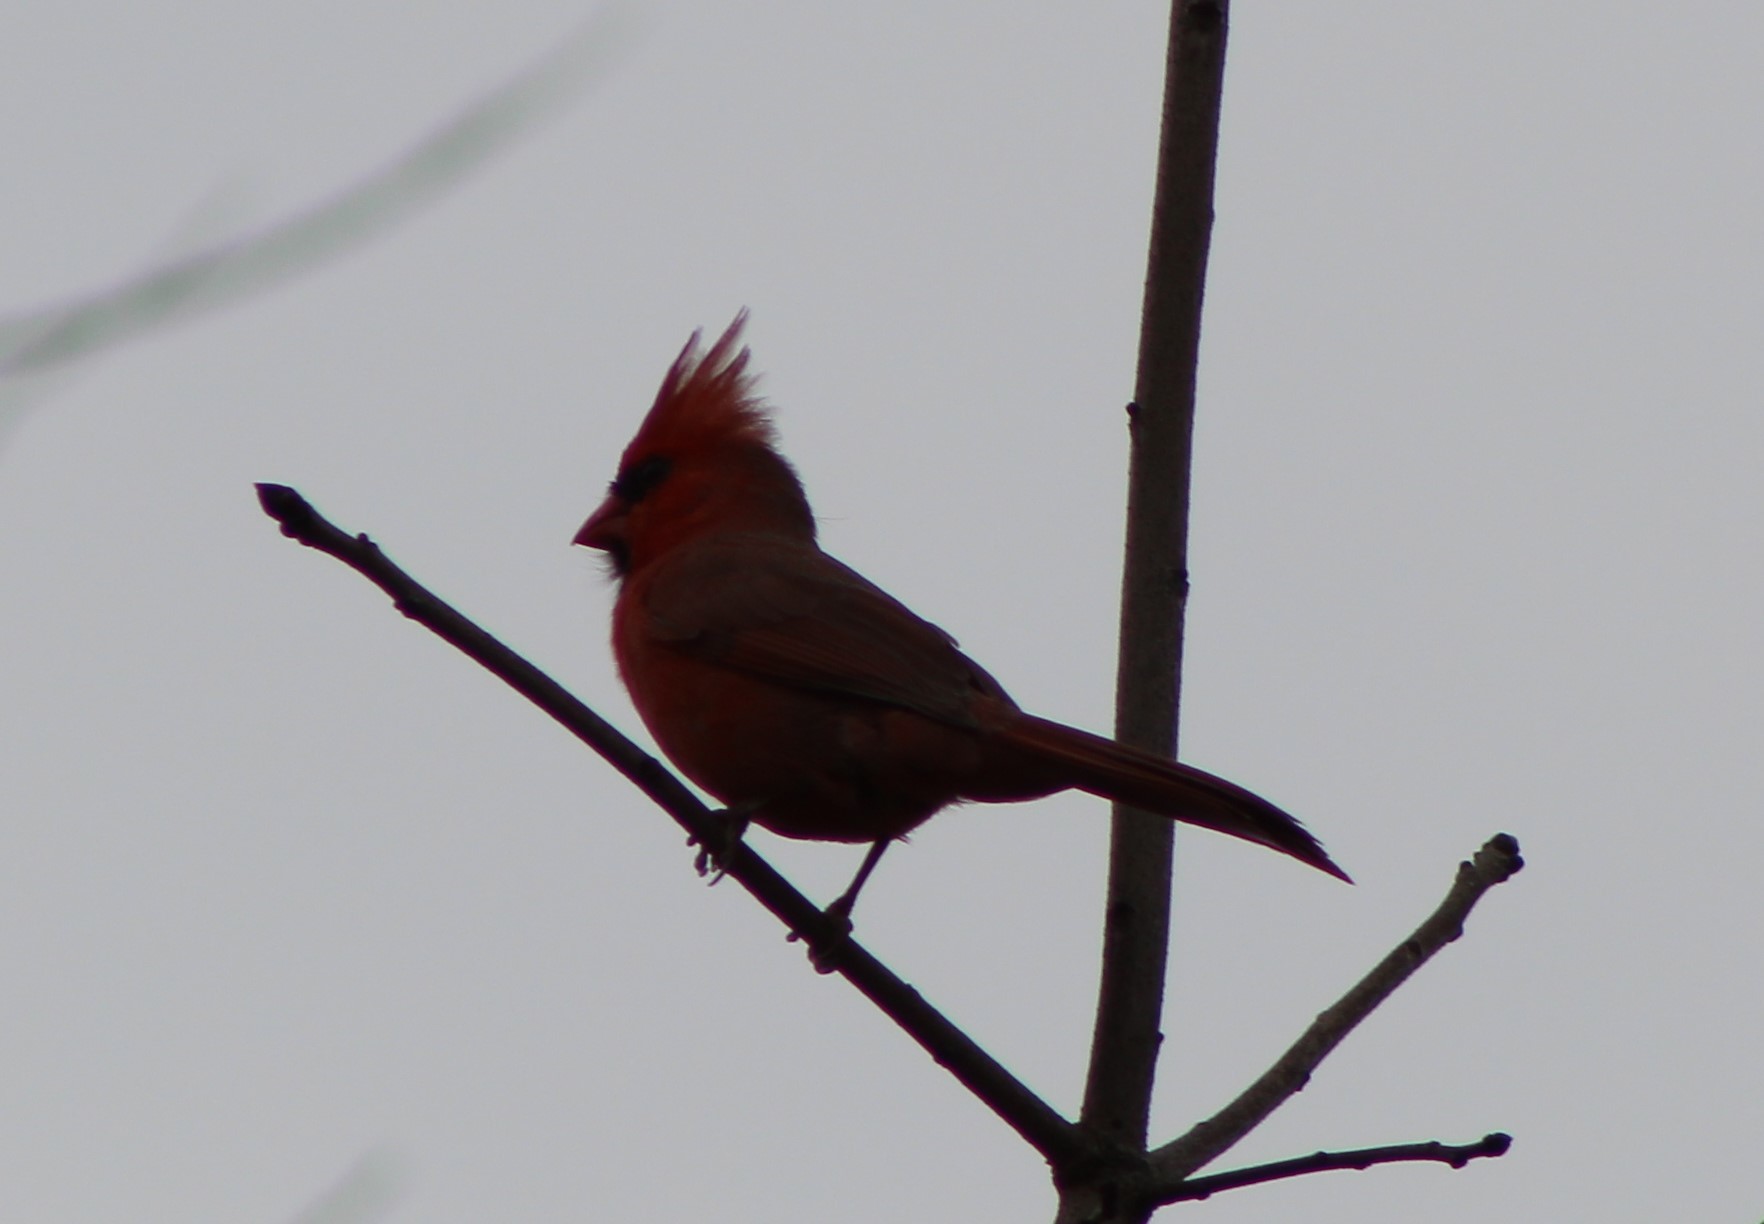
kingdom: Animalia
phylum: Chordata
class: Aves
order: Passeriformes
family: Cardinalidae
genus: Cardinalis
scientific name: Cardinalis cardinalis
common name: Northern cardinal
